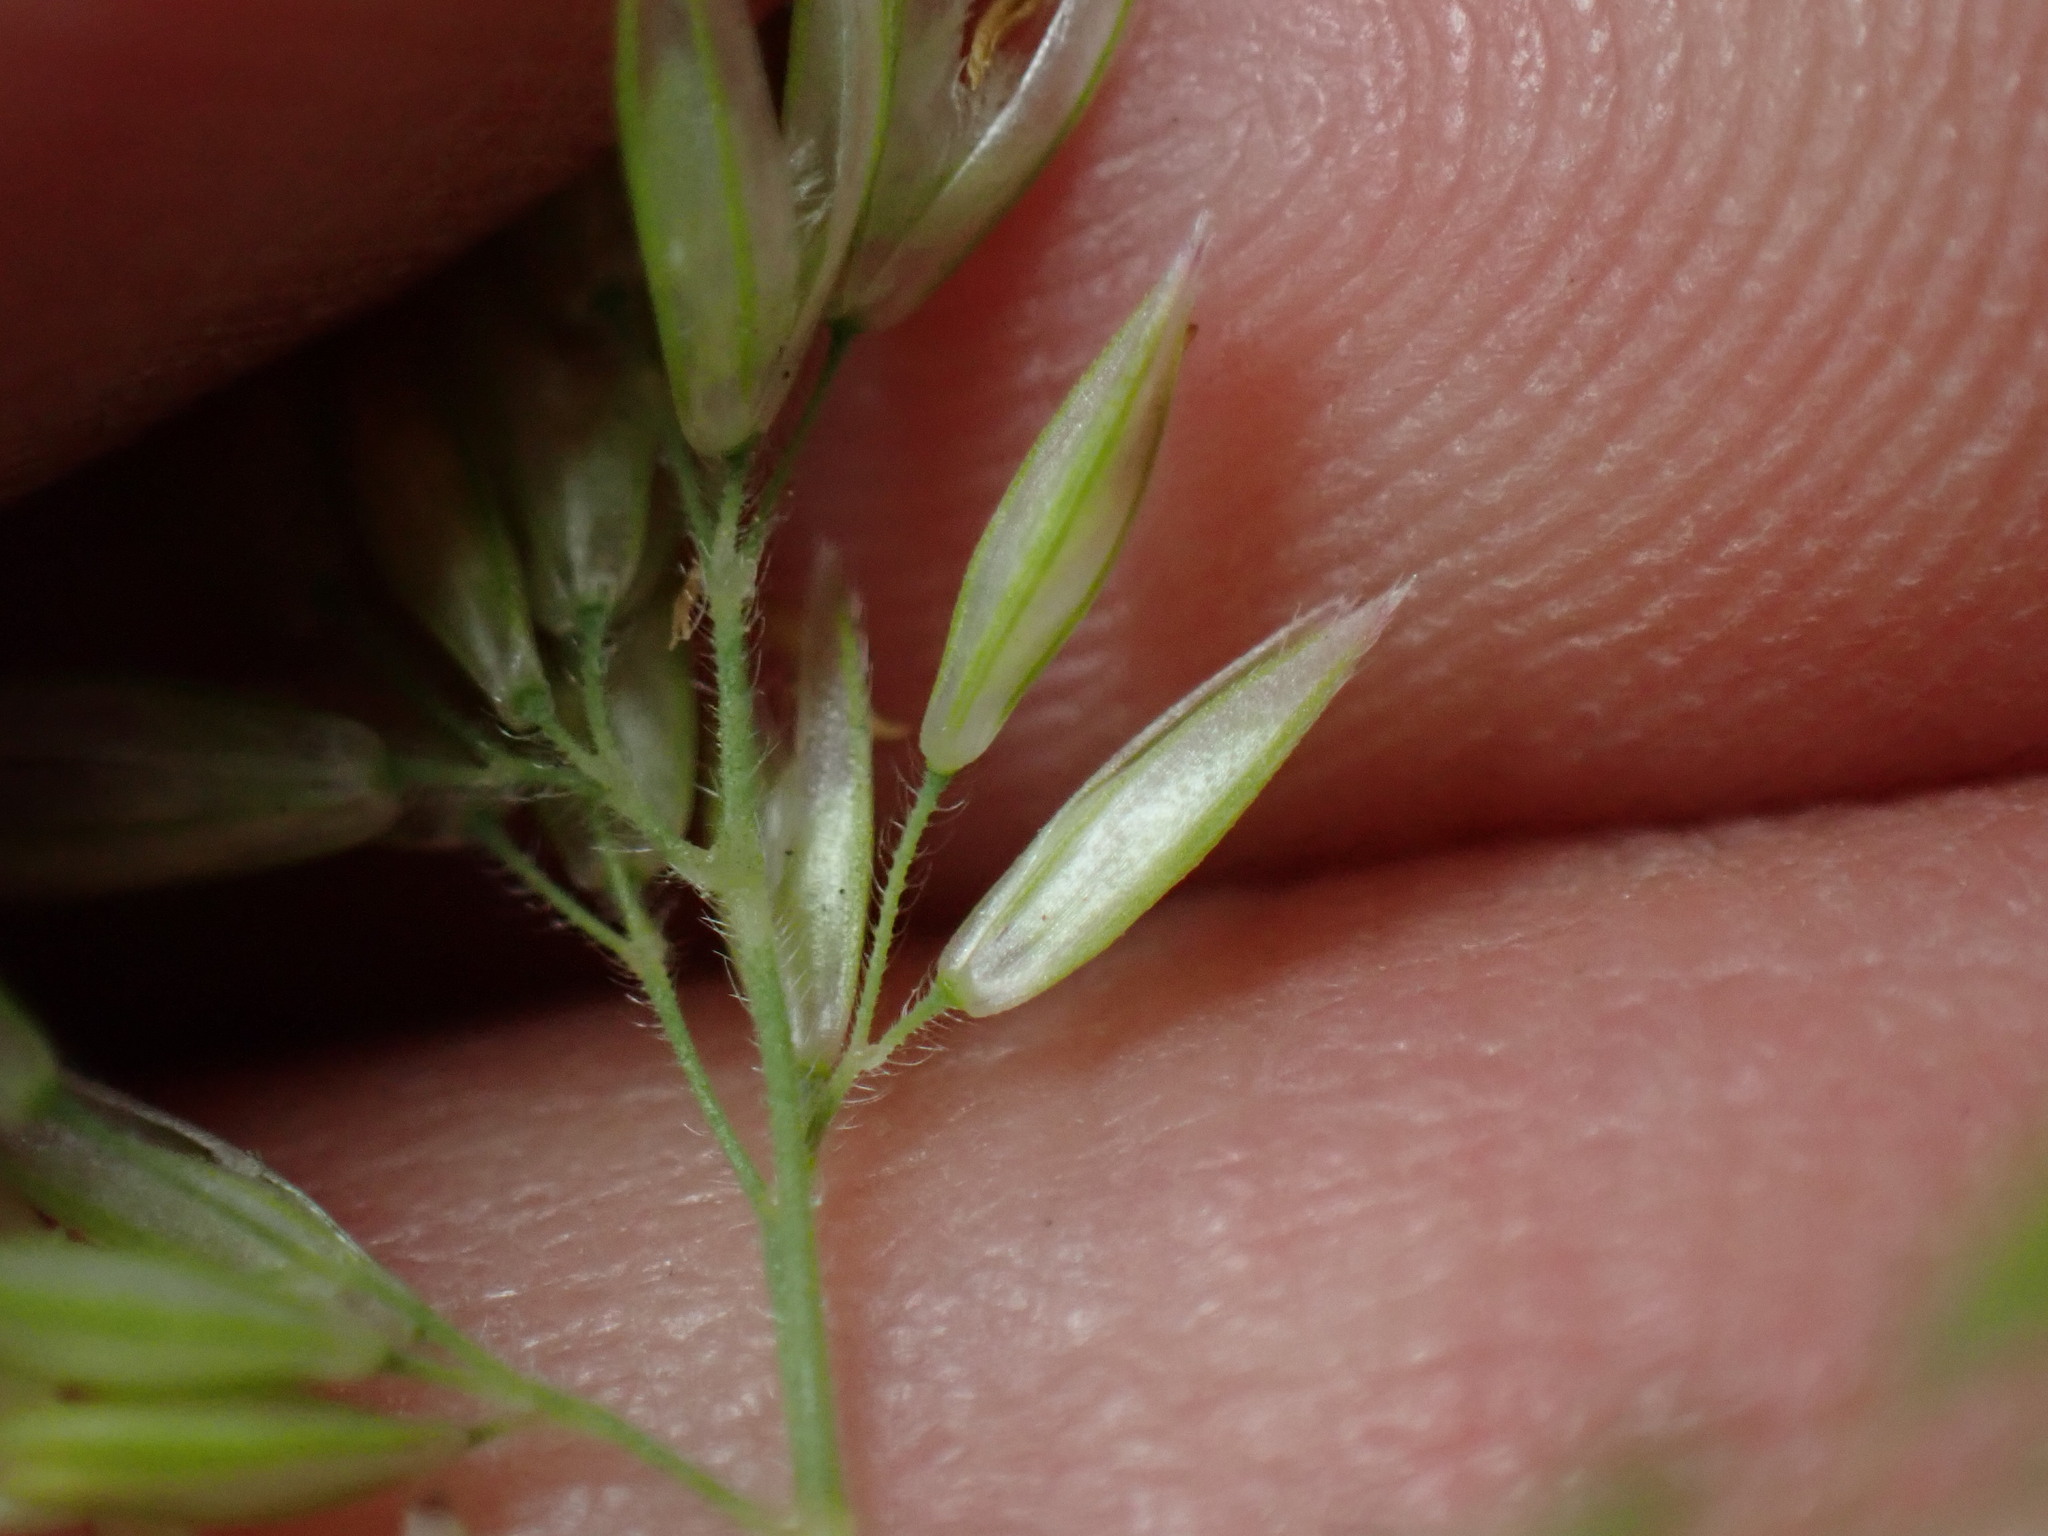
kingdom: Plantae
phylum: Tracheophyta
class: Liliopsida
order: Poales
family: Poaceae
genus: Holcus
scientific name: Holcus lanatus
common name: Yorkshire-fog
